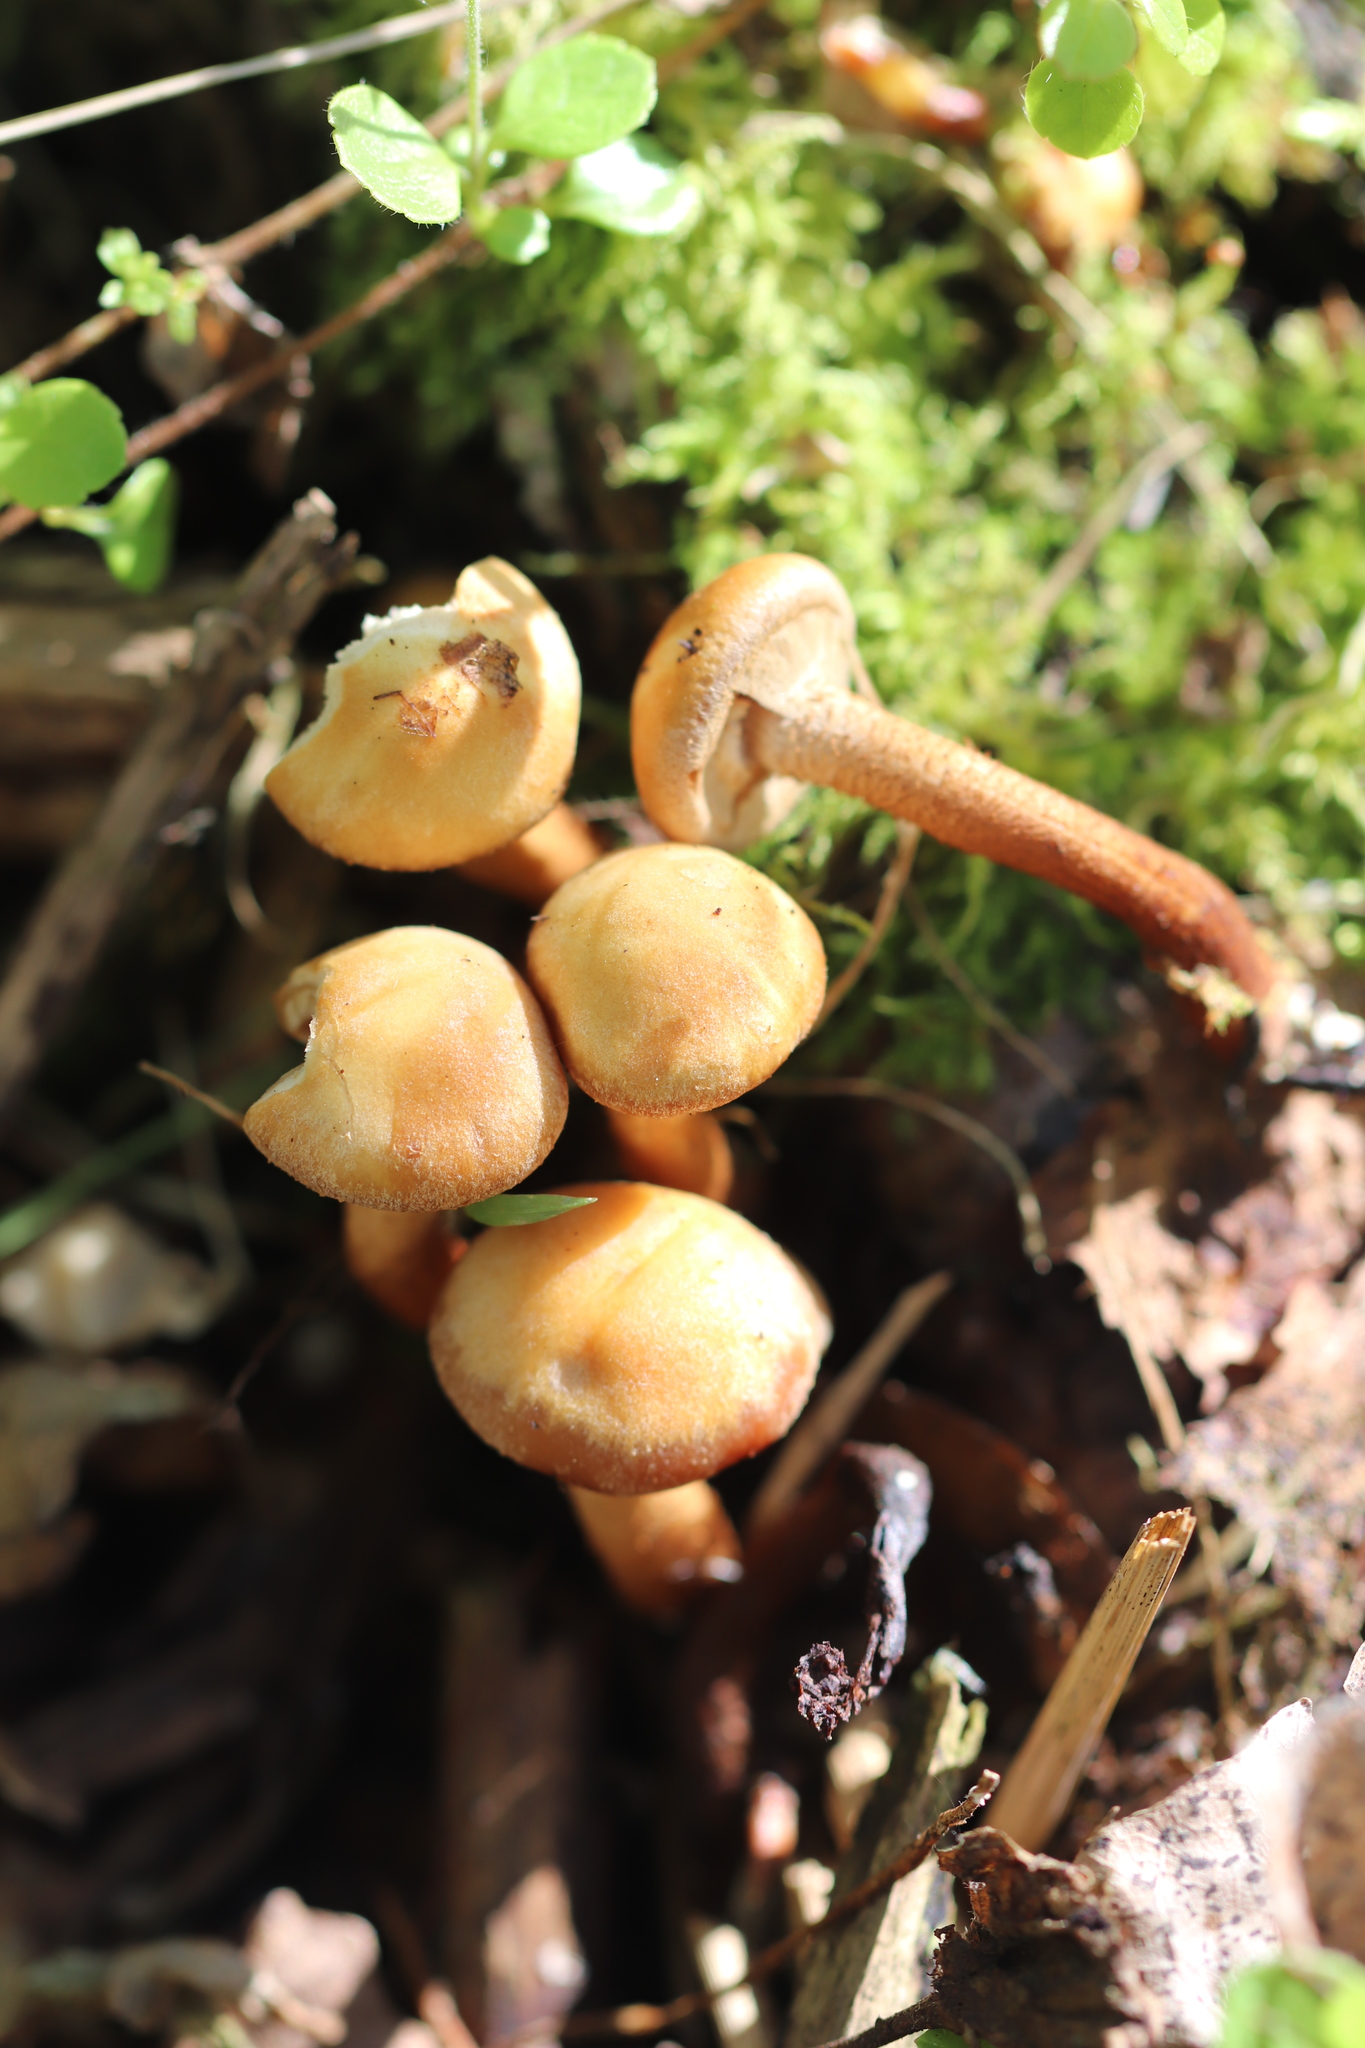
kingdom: Fungi
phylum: Basidiomycota
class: Agaricomycetes
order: Agaricales
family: Strophariaceae
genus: Kuehneromyces
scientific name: Kuehneromyces mutabilis
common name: Sheathed woodtuft
